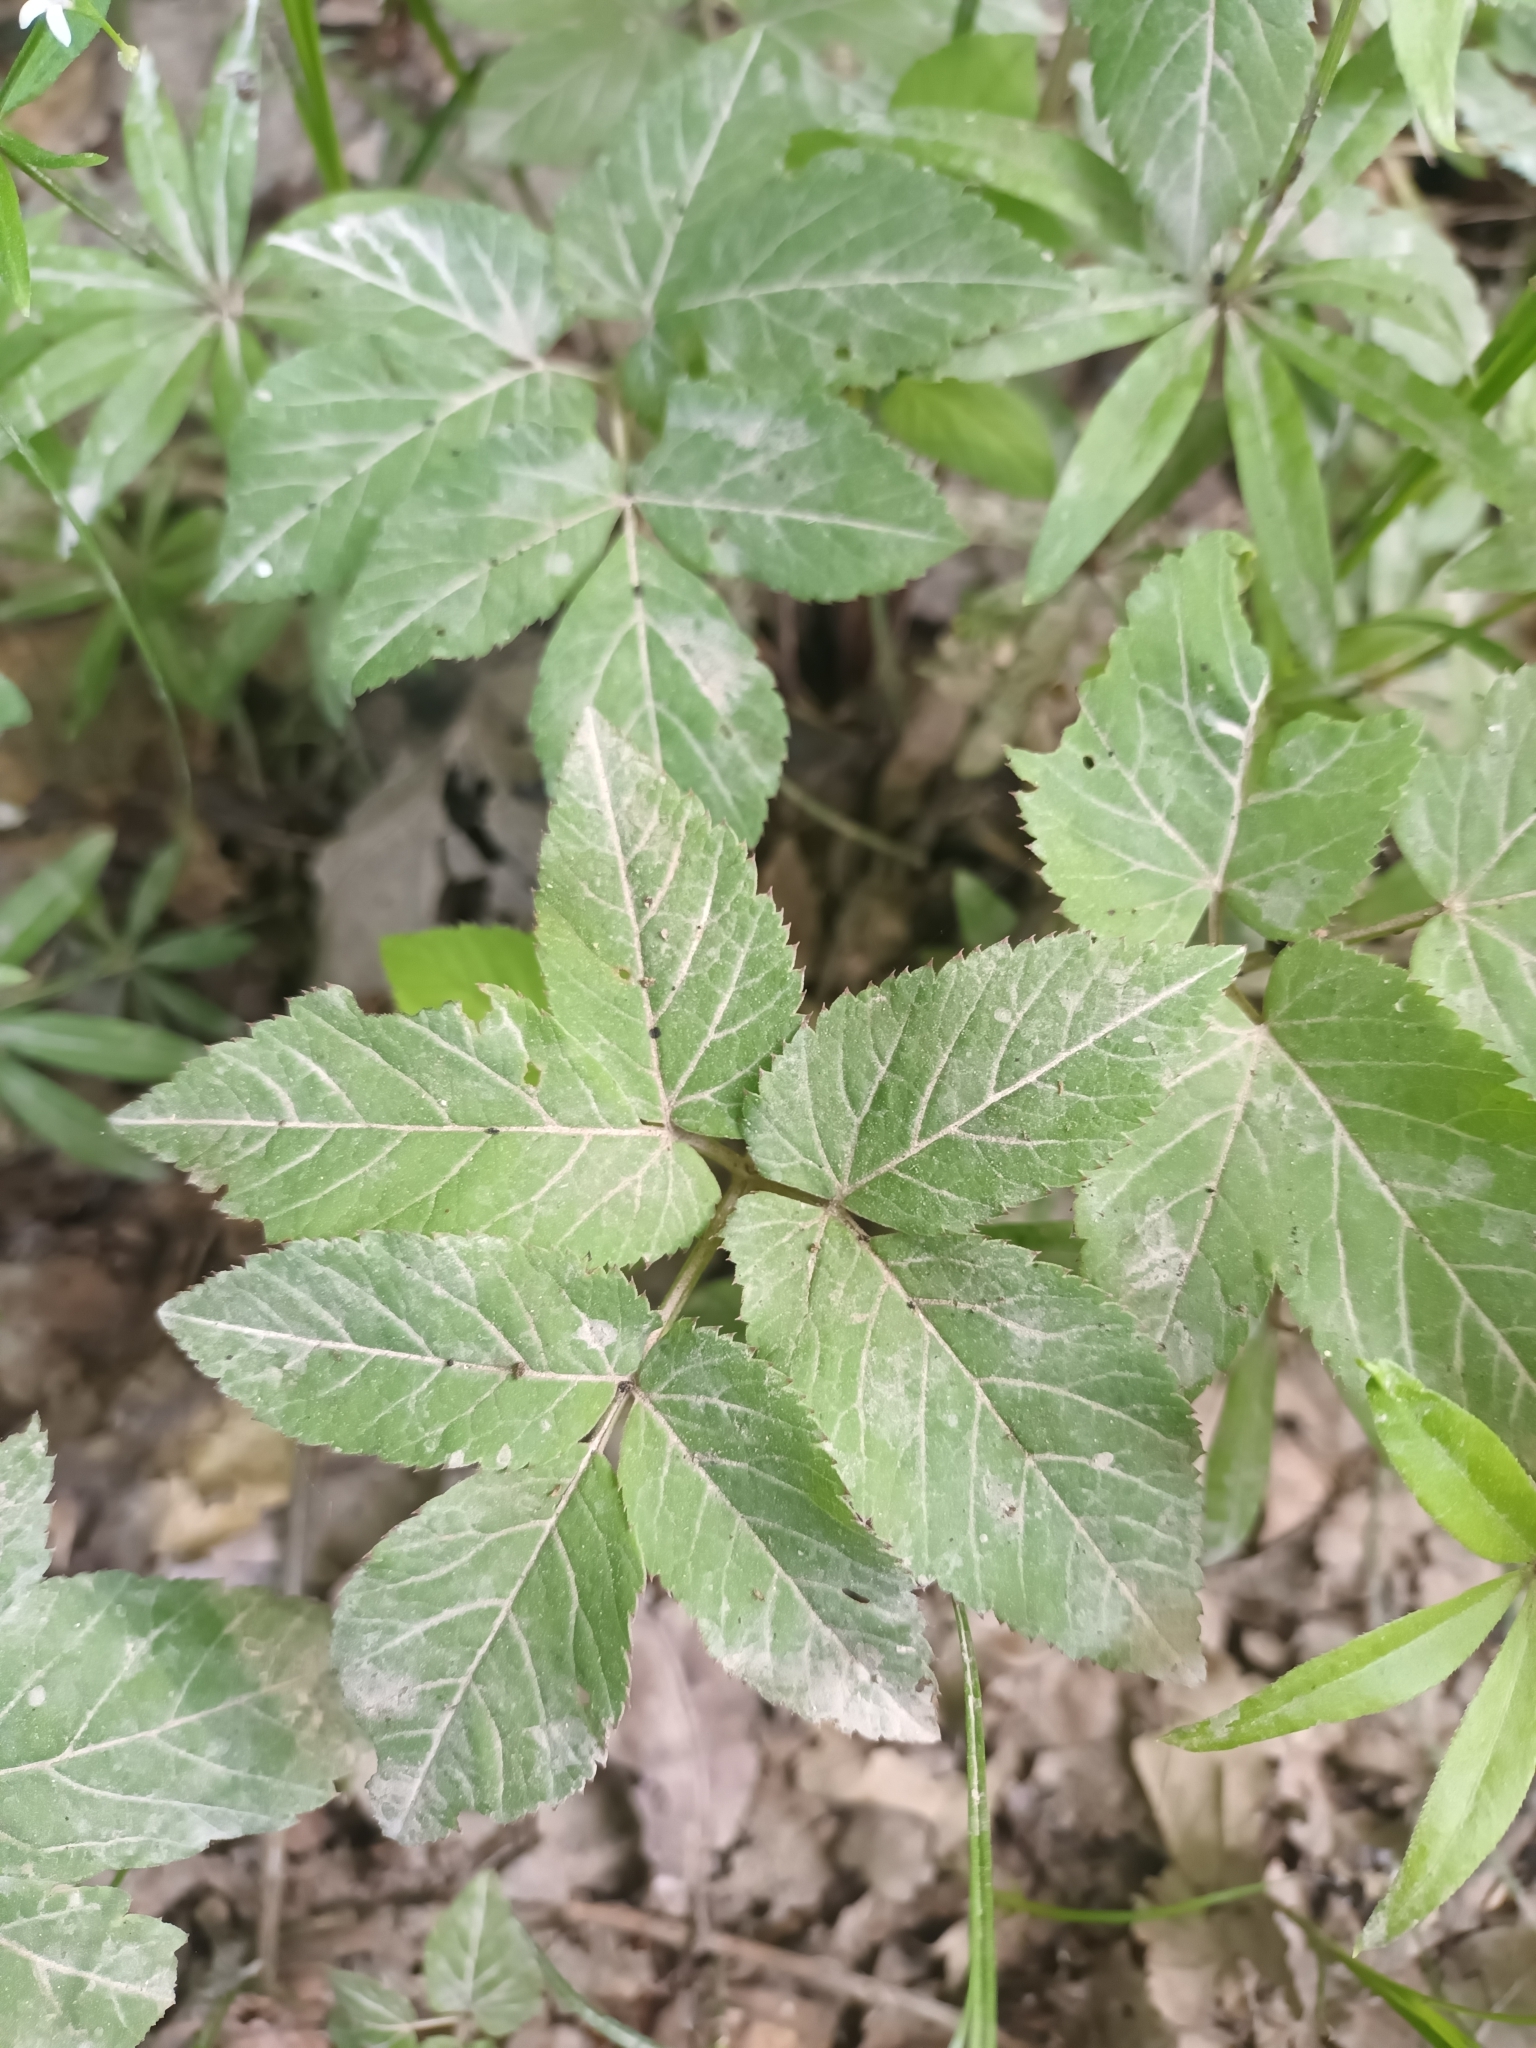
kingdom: Plantae
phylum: Tracheophyta
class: Magnoliopsida
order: Apiales
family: Apiaceae
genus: Aegopodium
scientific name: Aegopodium podagraria
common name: Ground-elder
